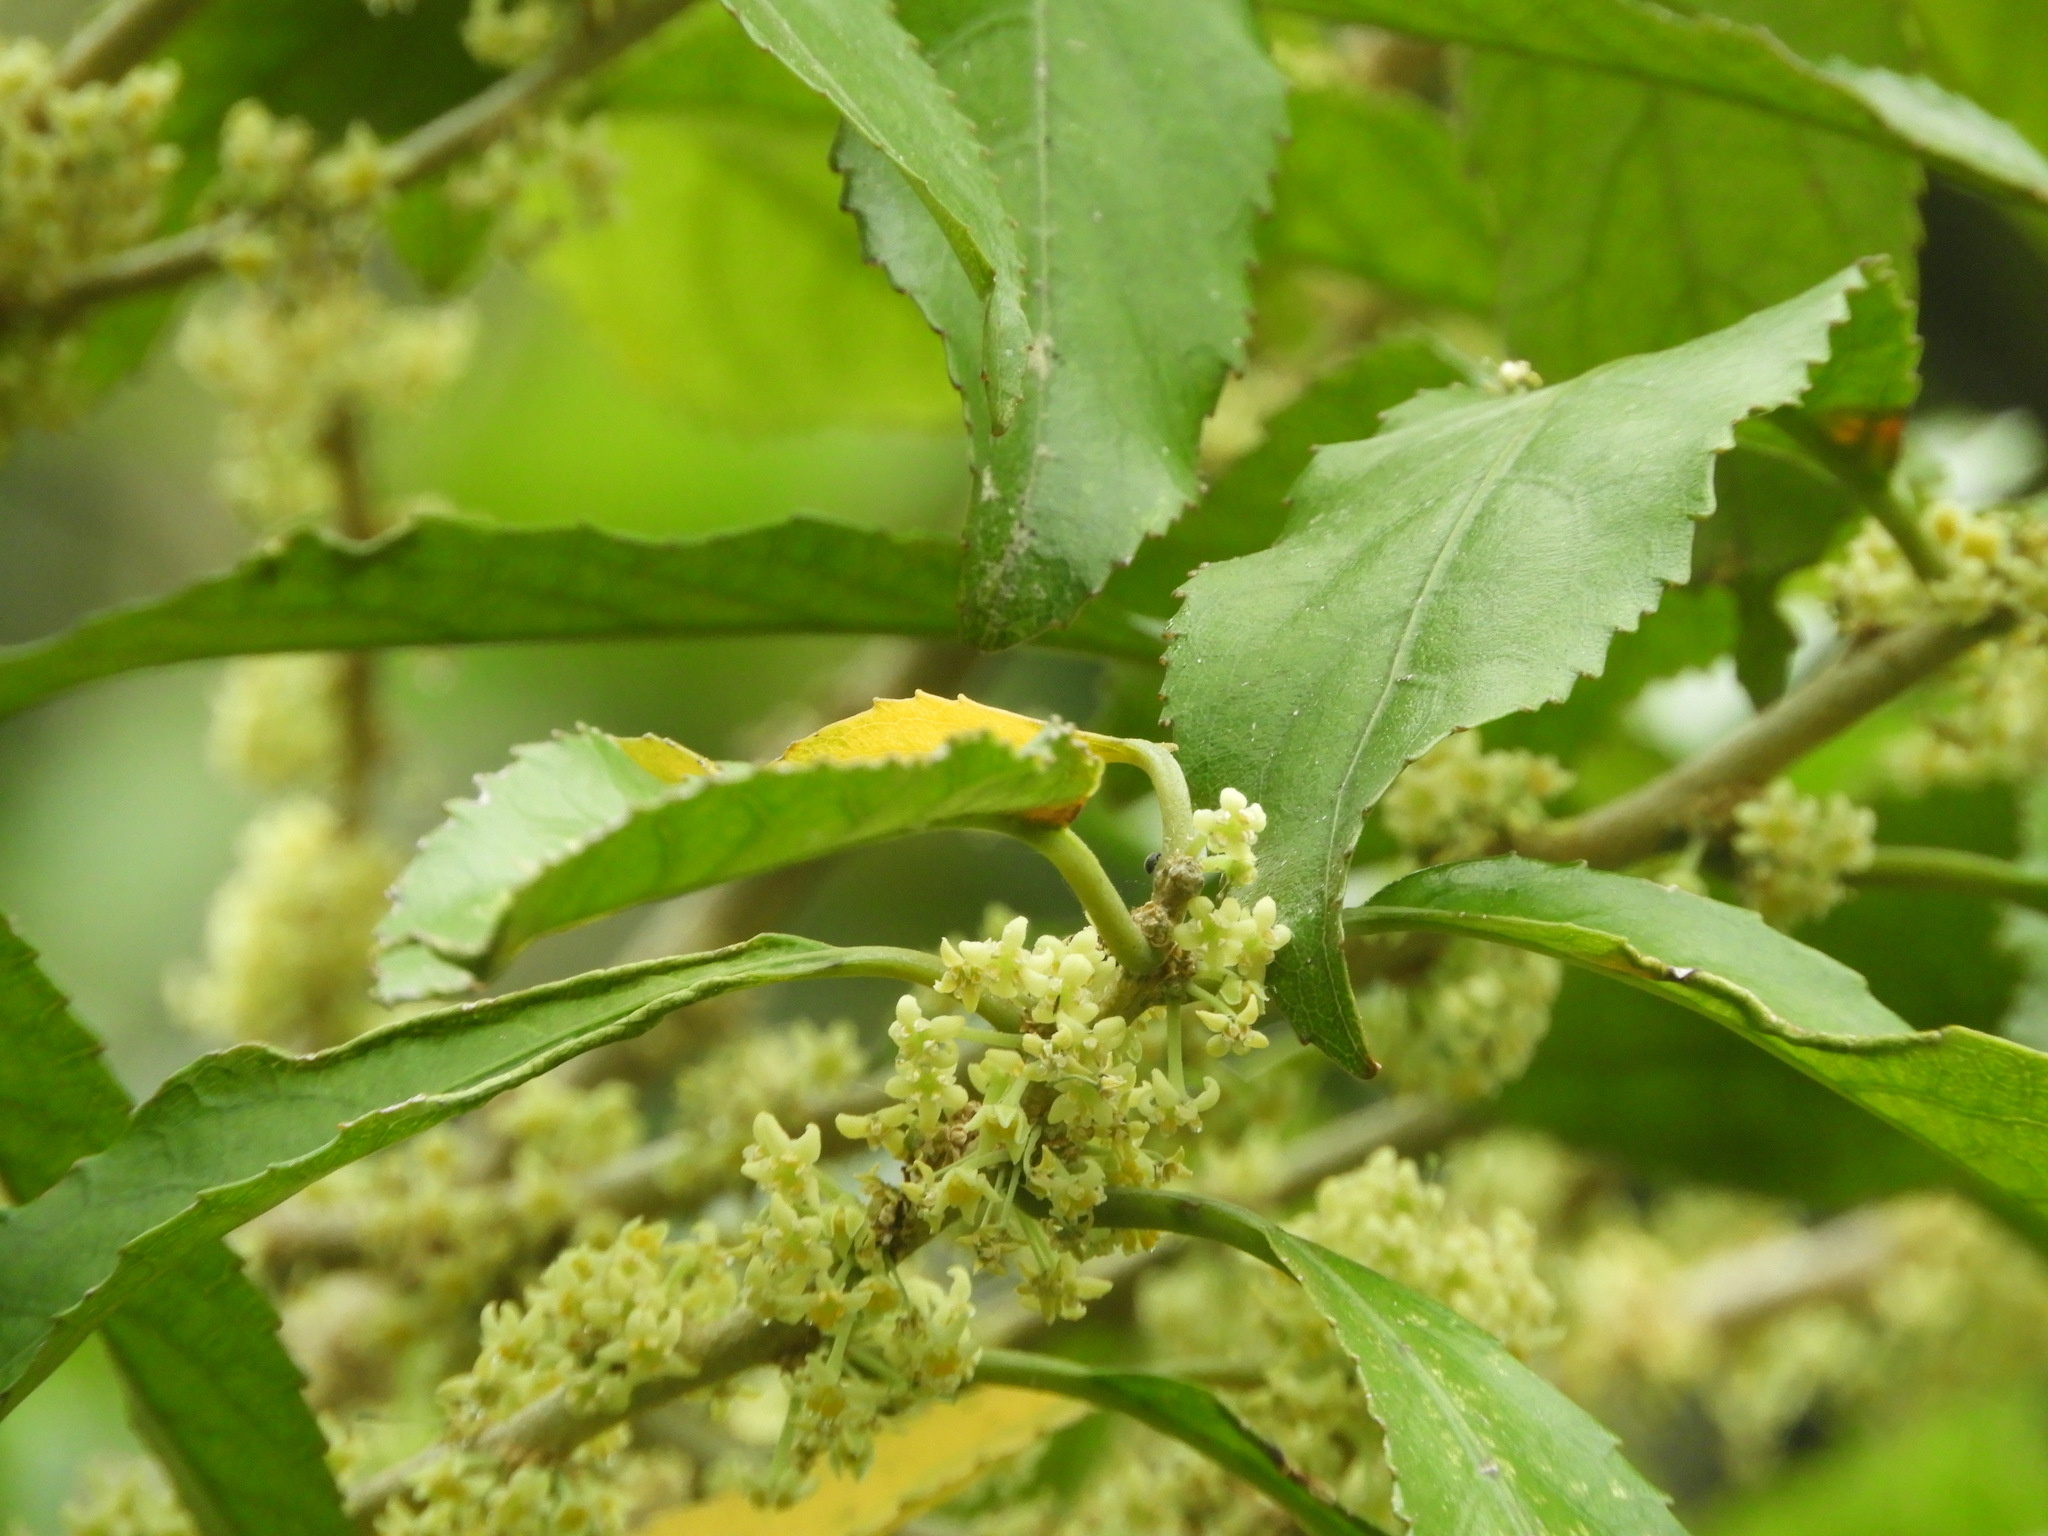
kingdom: Plantae
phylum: Tracheophyta
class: Magnoliopsida
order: Malpighiales
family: Violaceae
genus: Melicytus
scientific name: Melicytus ramiflorus
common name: Mahoe
